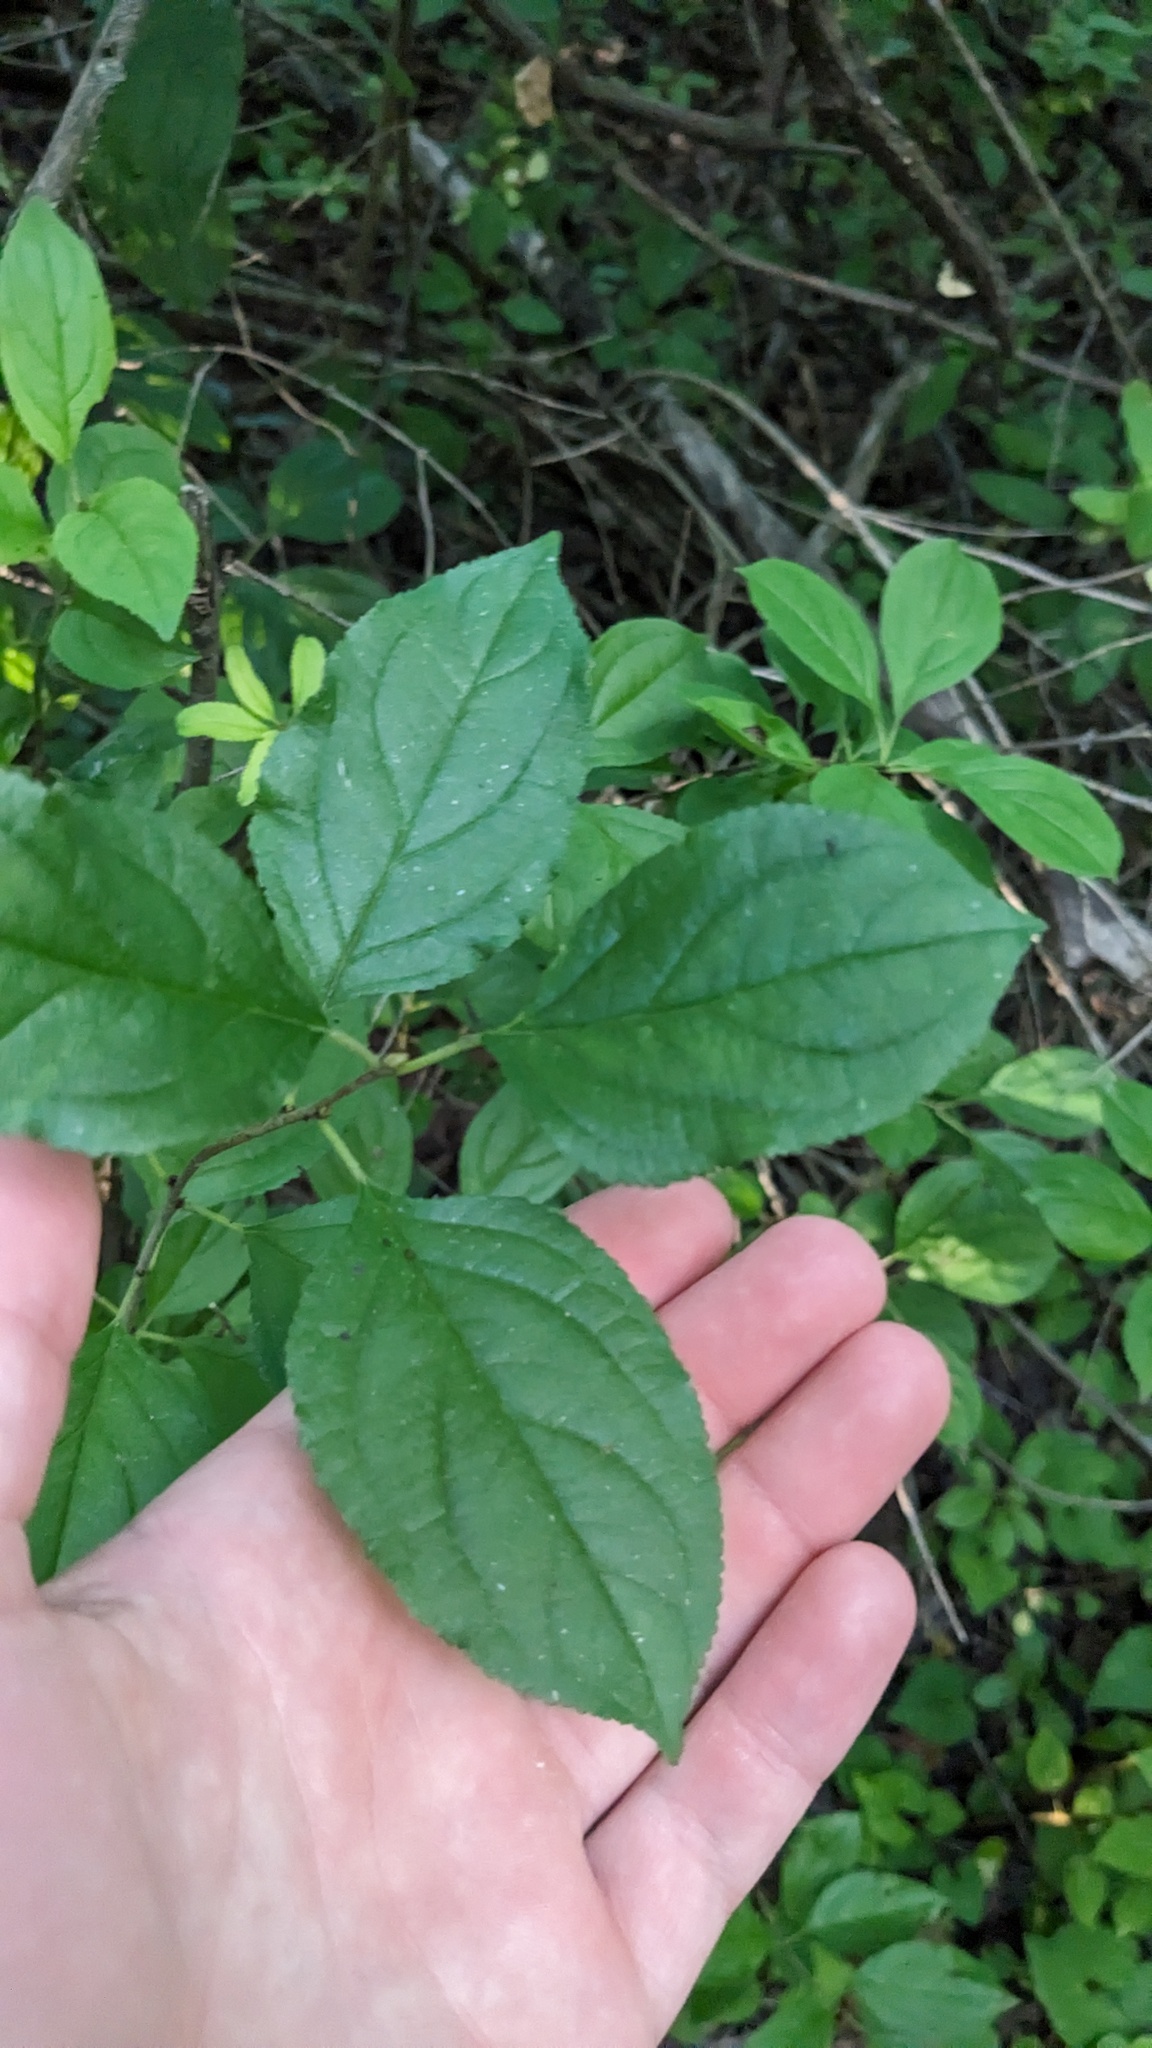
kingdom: Plantae
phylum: Tracheophyta
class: Magnoliopsida
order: Rosales
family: Rhamnaceae
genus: Rhamnus
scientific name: Rhamnus cathartica
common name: Common buckthorn
